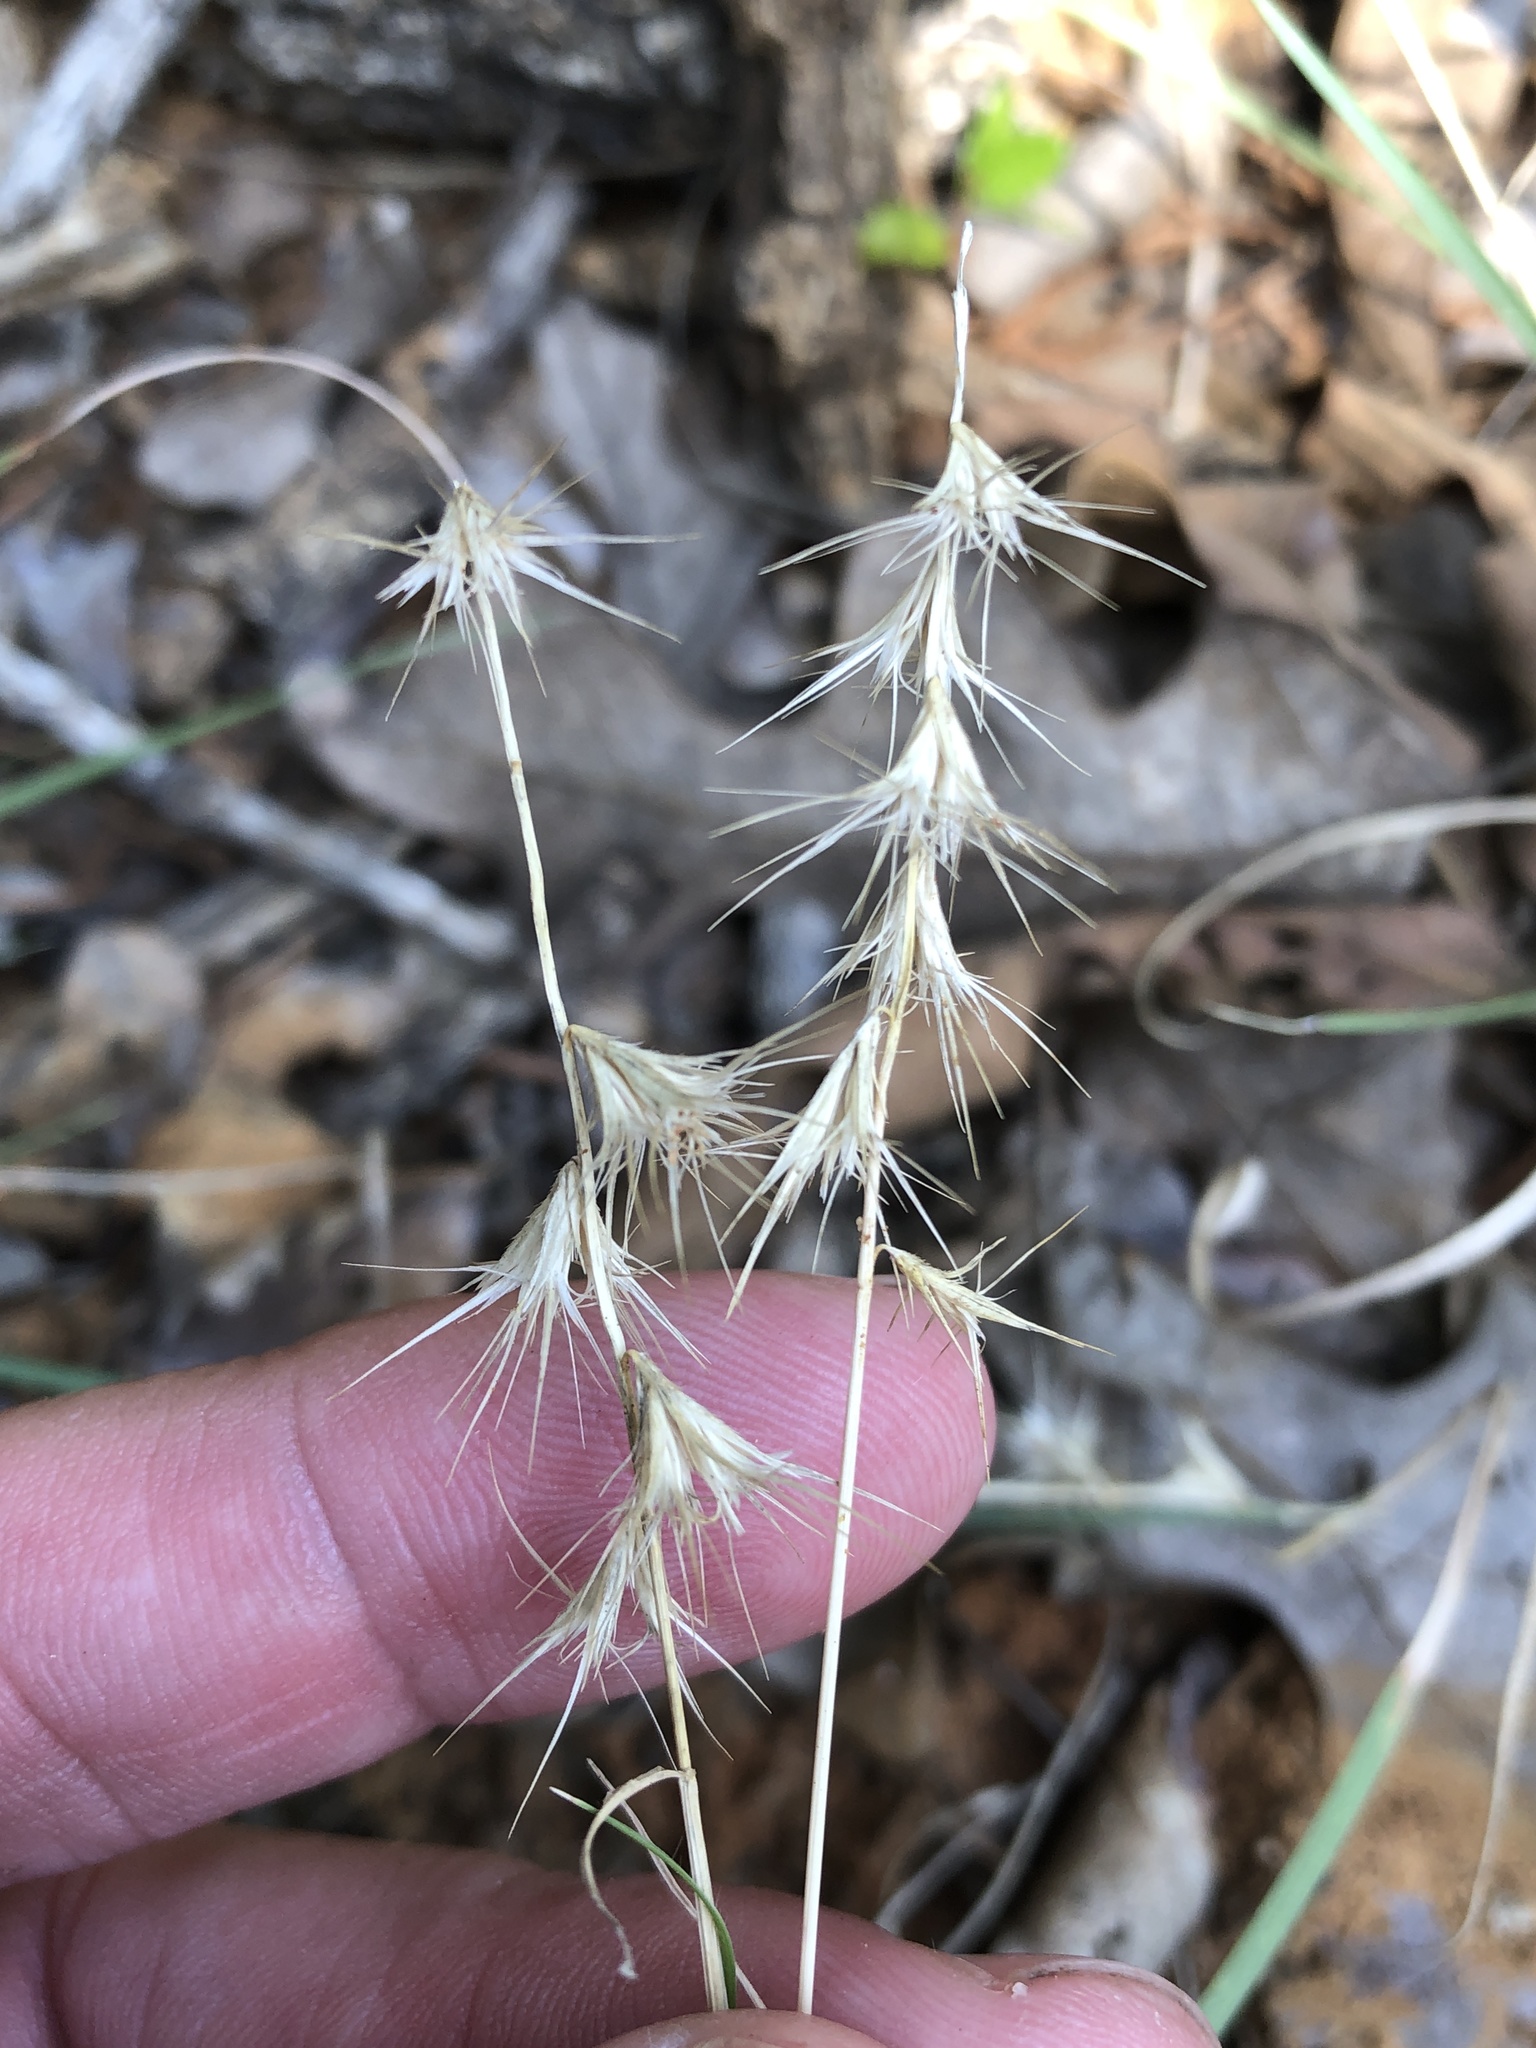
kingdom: Plantae
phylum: Tracheophyta
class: Liliopsida
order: Poales
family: Poaceae
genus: Bouteloua
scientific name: Bouteloua rigidiseta
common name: Texas grama
